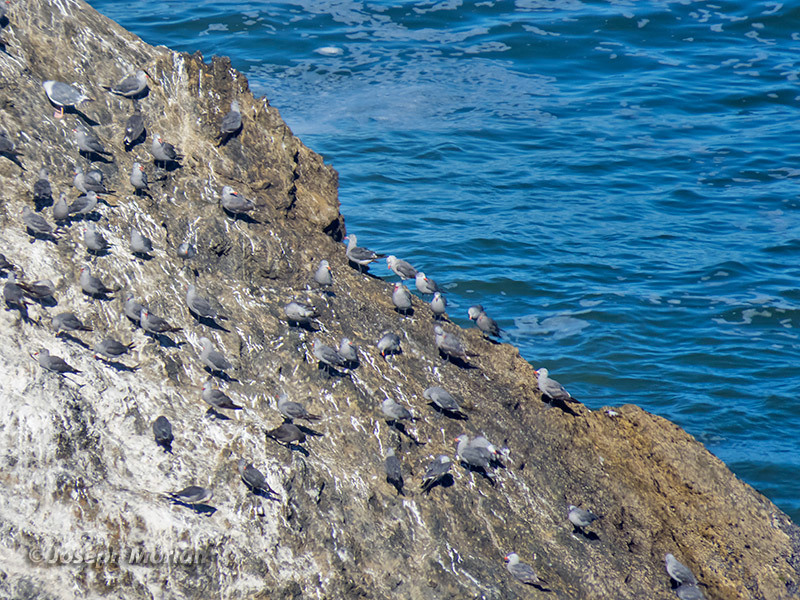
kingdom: Animalia
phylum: Chordata
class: Aves
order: Charadriiformes
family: Laridae
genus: Larus
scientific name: Larus heermanni
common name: Heermann's gull
